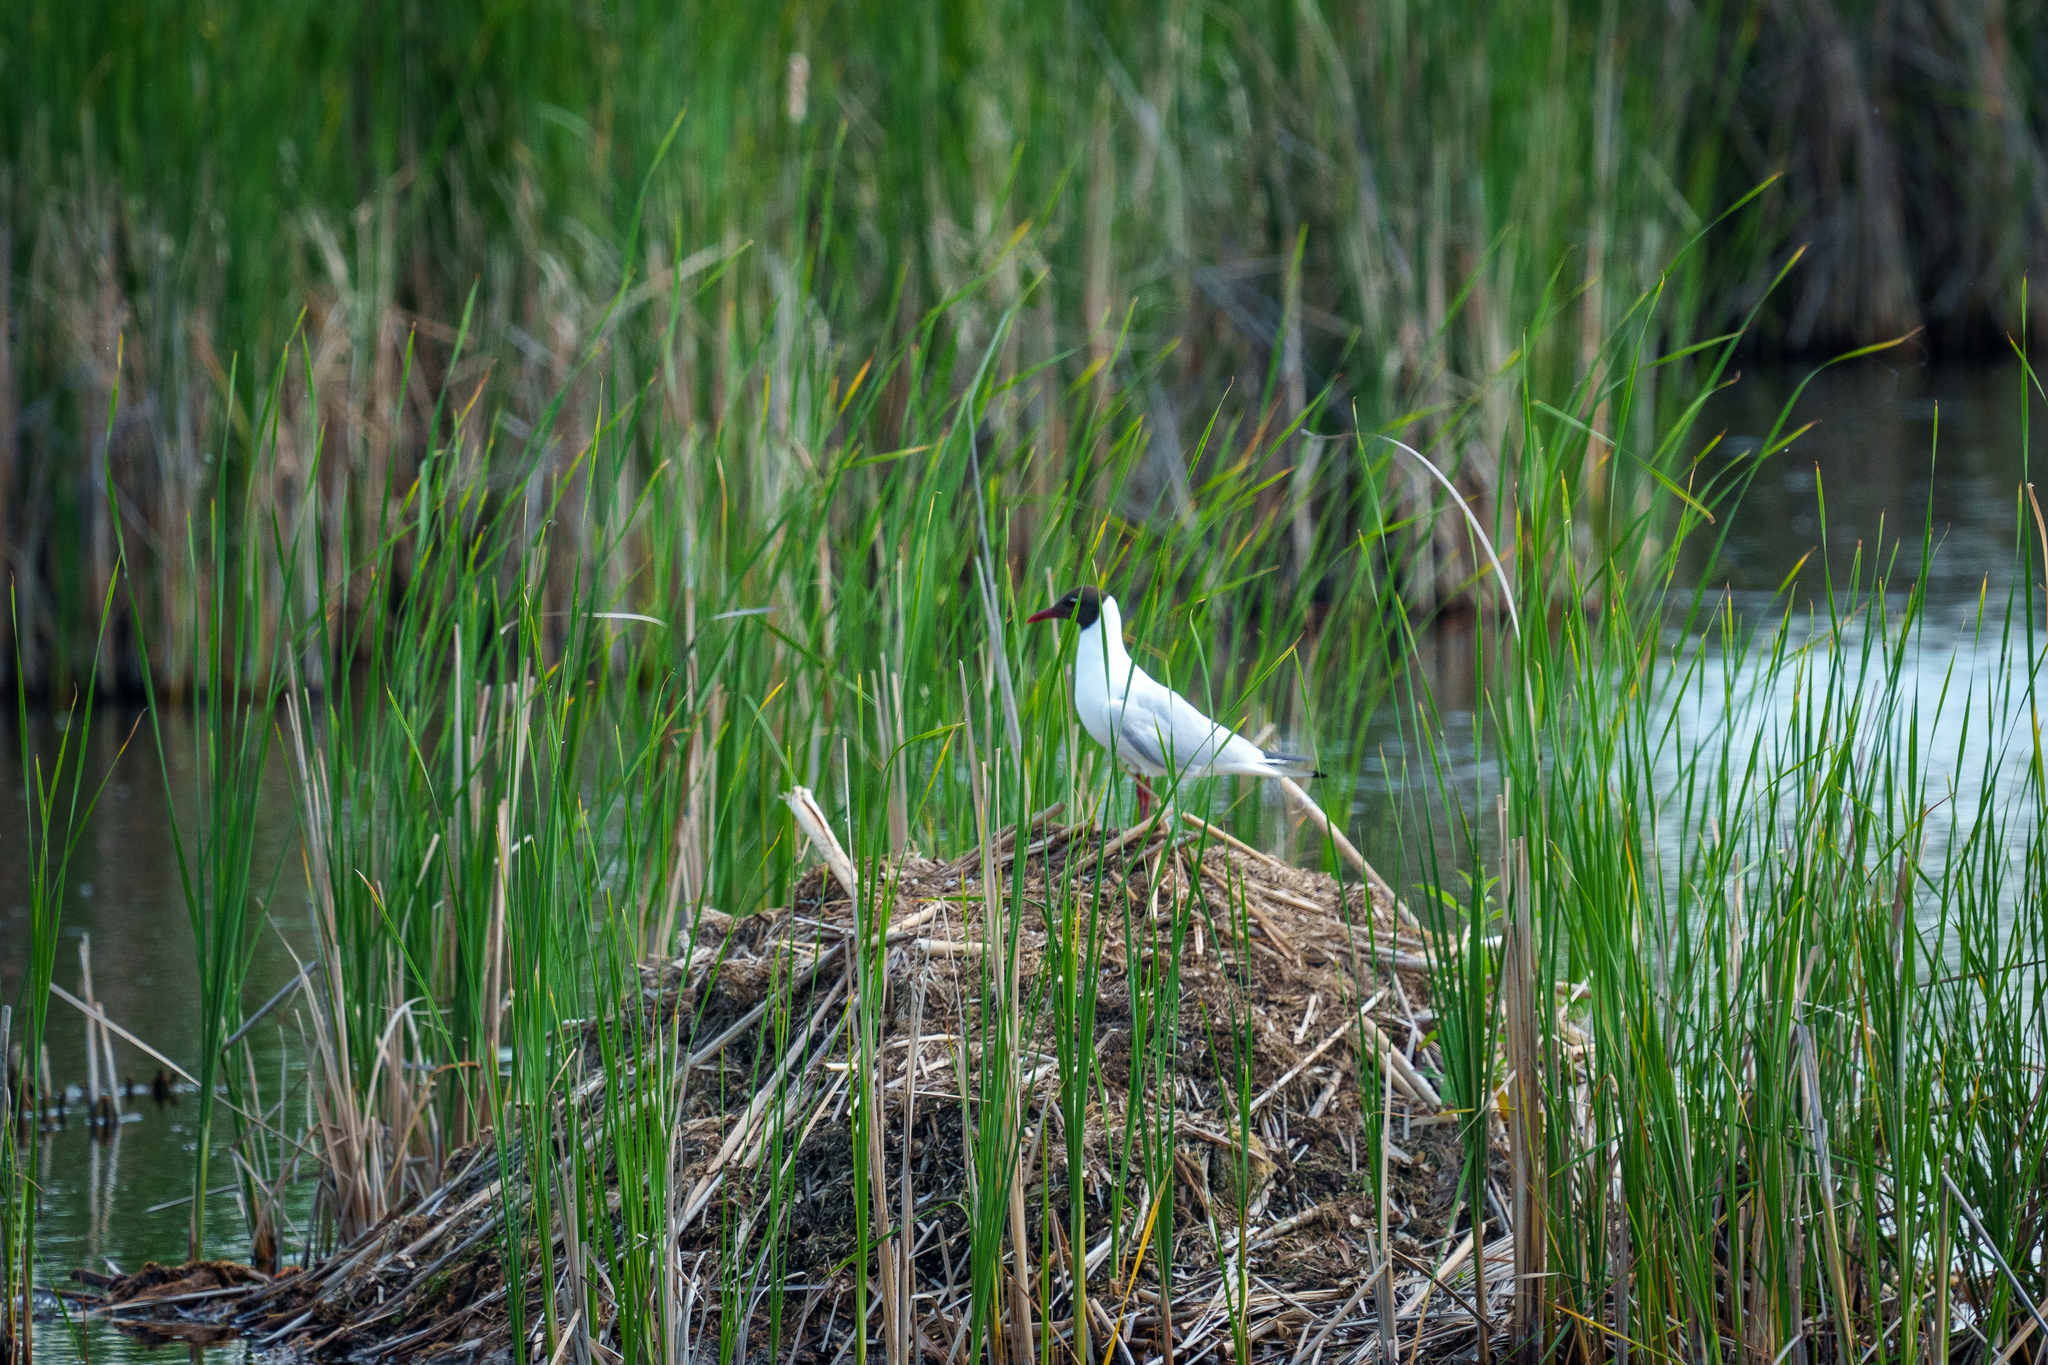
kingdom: Animalia
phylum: Chordata
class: Aves
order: Charadriiformes
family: Laridae
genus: Chroicocephalus
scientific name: Chroicocephalus ridibundus
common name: Black-headed gull
